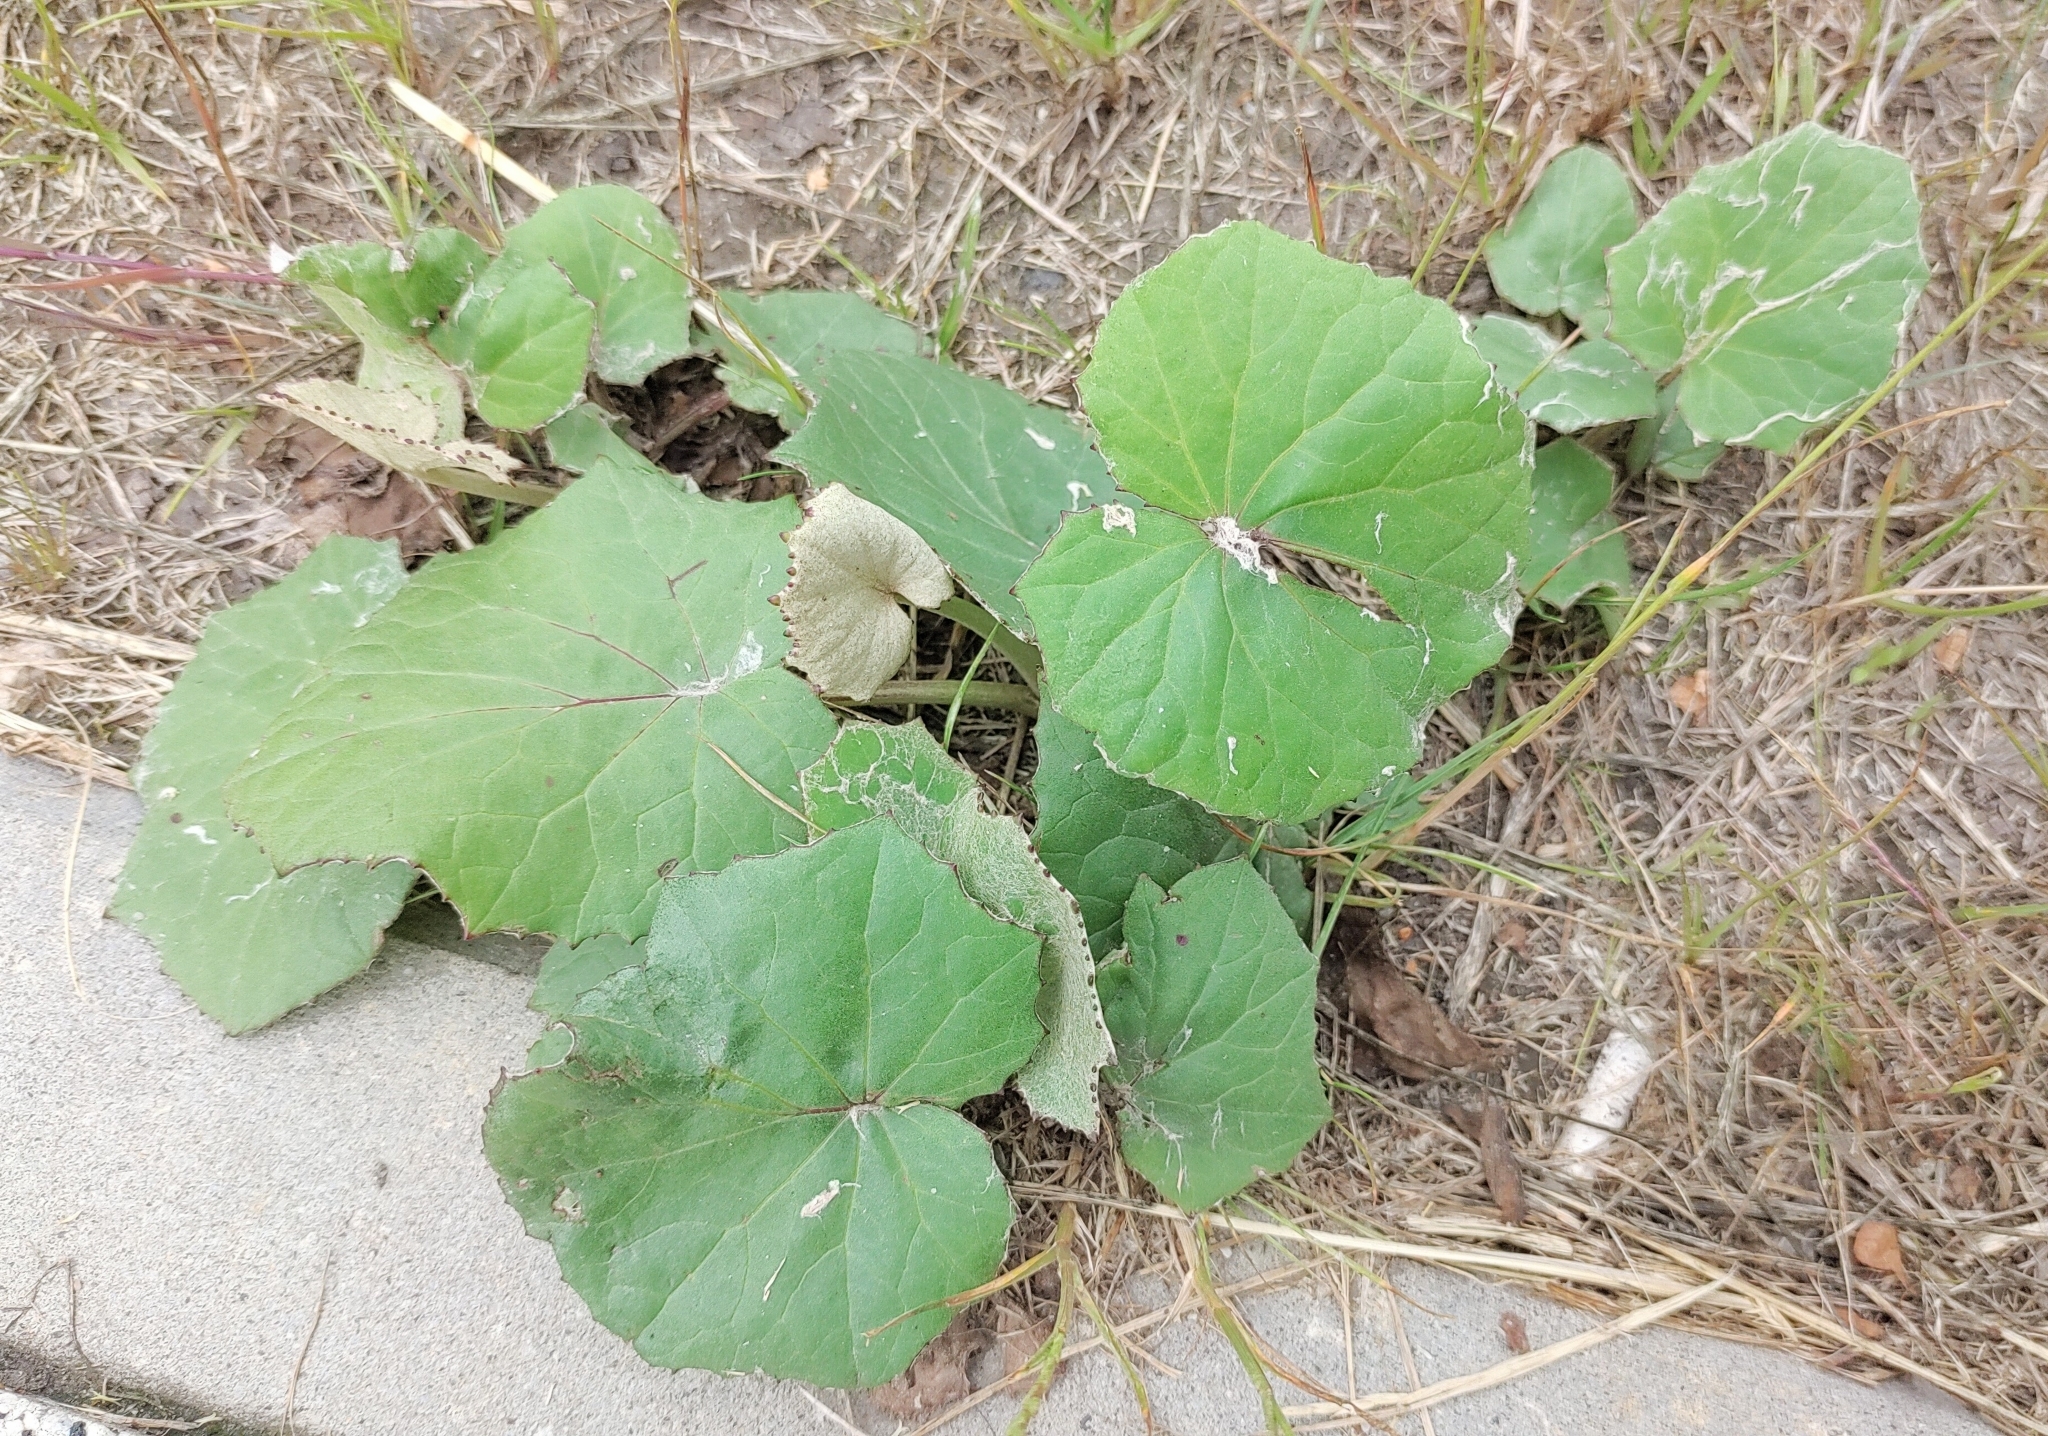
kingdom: Plantae
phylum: Tracheophyta
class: Magnoliopsida
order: Asterales
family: Asteraceae
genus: Tussilago
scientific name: Tussilago farfara
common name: Coltsfoot
